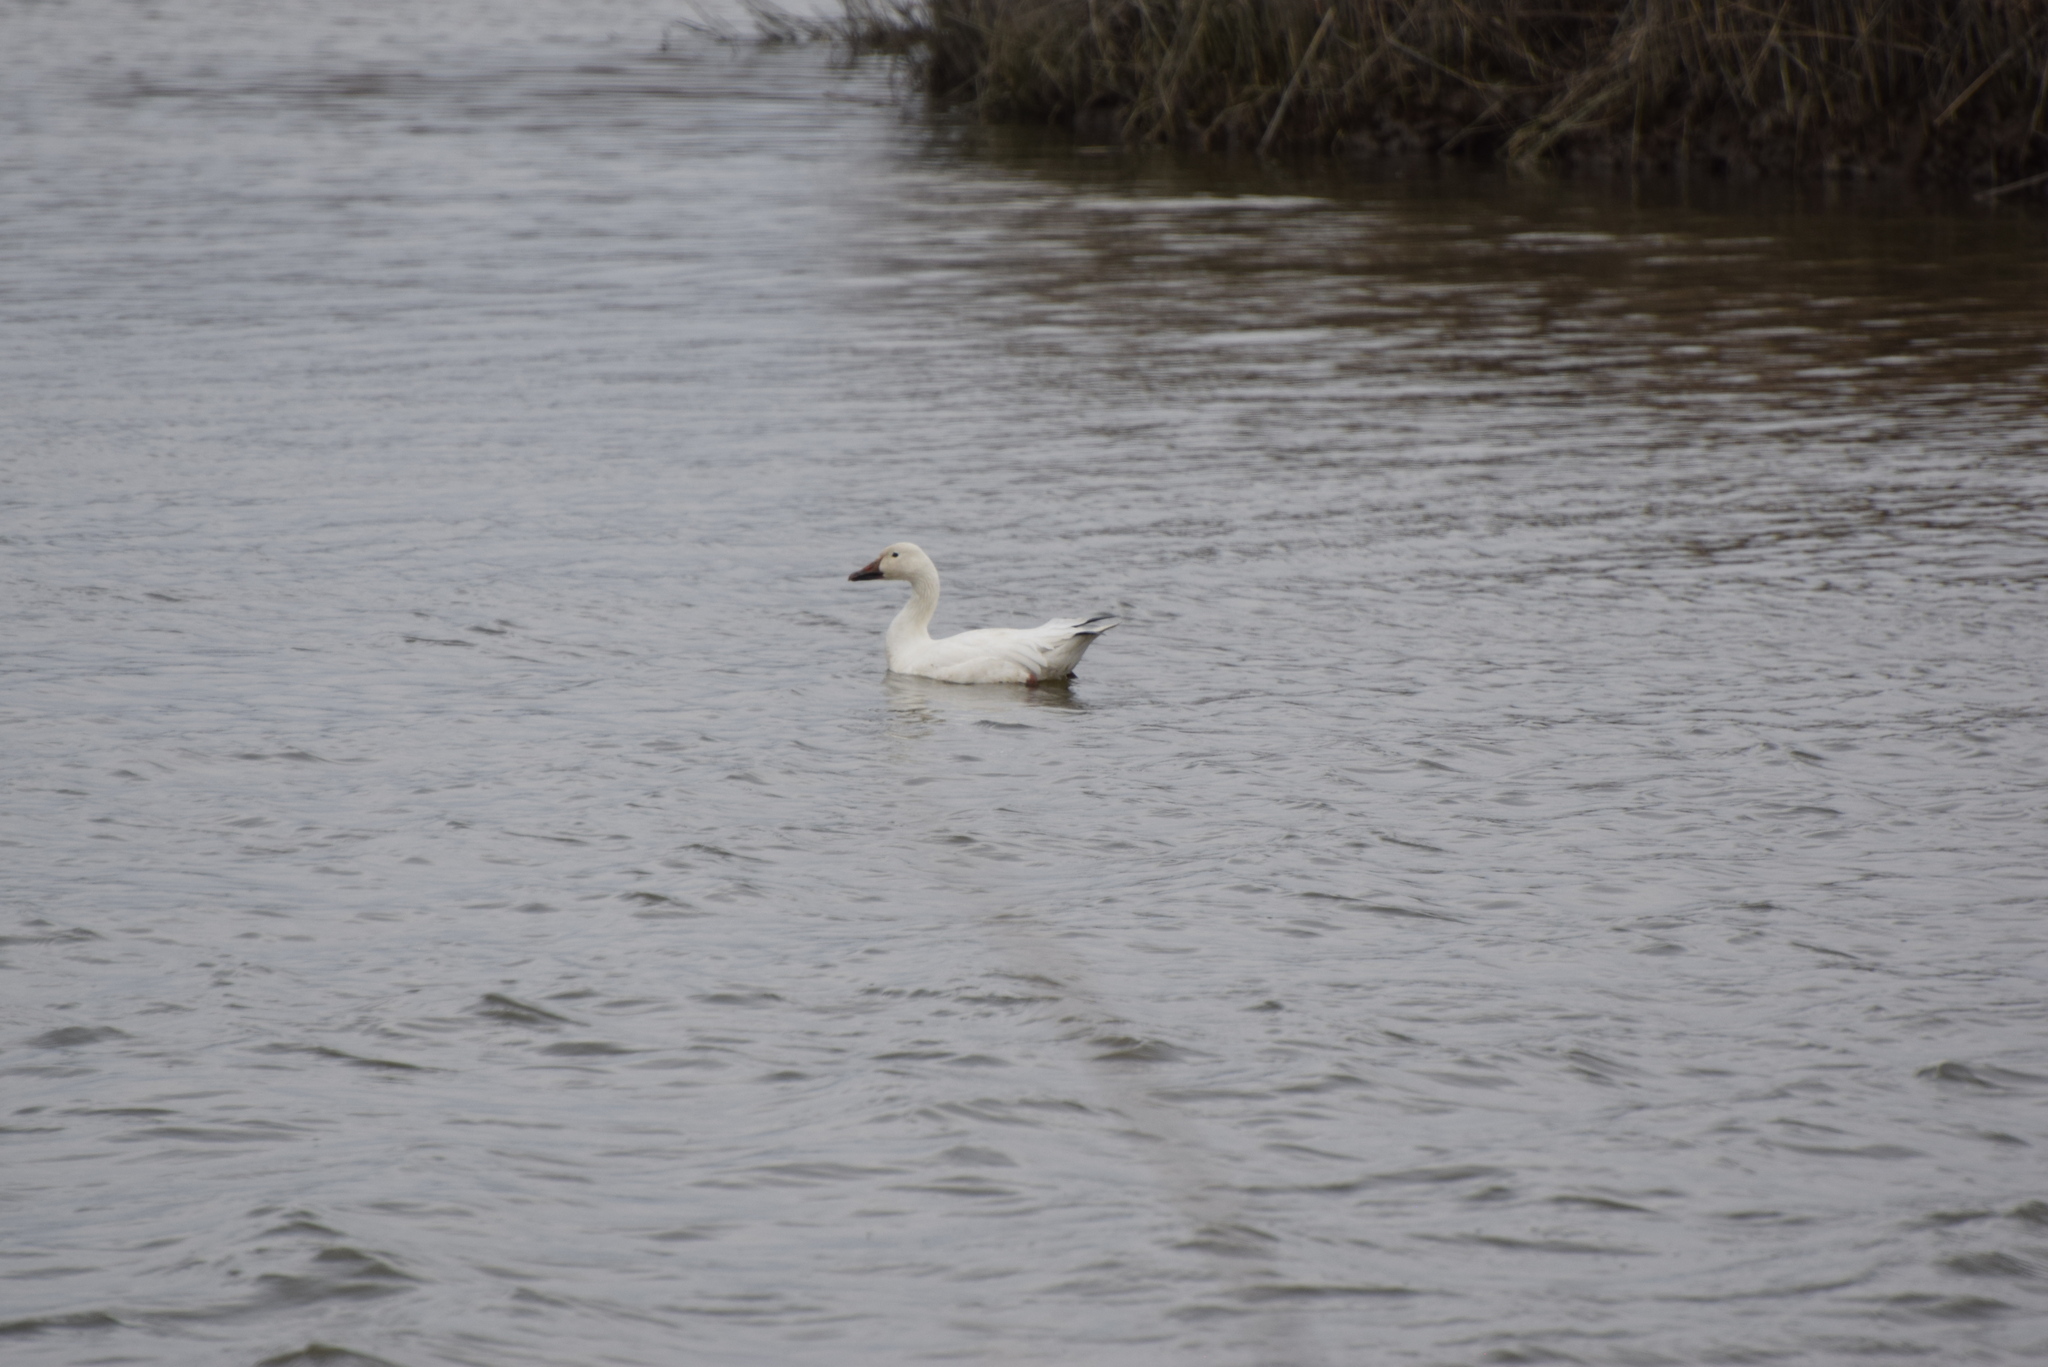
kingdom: Animalia
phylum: Chordata
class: Aves
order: Anseriformes
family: Anatidae
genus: Anser
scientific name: Anser caerulescens
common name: Snow goose
